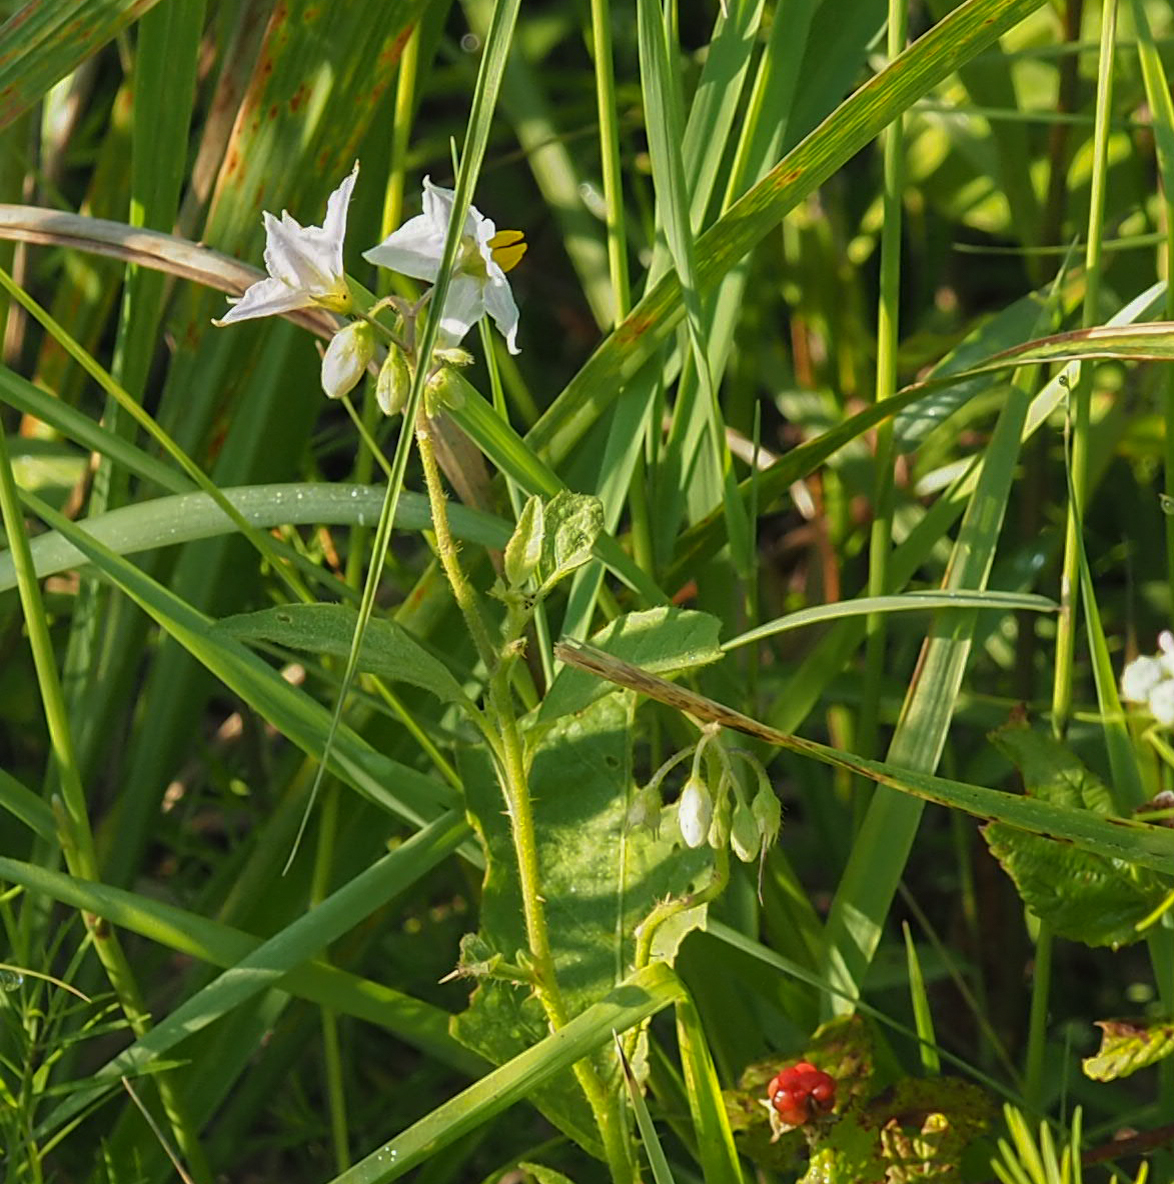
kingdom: Plantae
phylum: Tracheophyta
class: Magnoliopsida
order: Solanales
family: Solanaceae
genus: Solanum
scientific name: Solanum carolinense
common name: Horse-nettle
